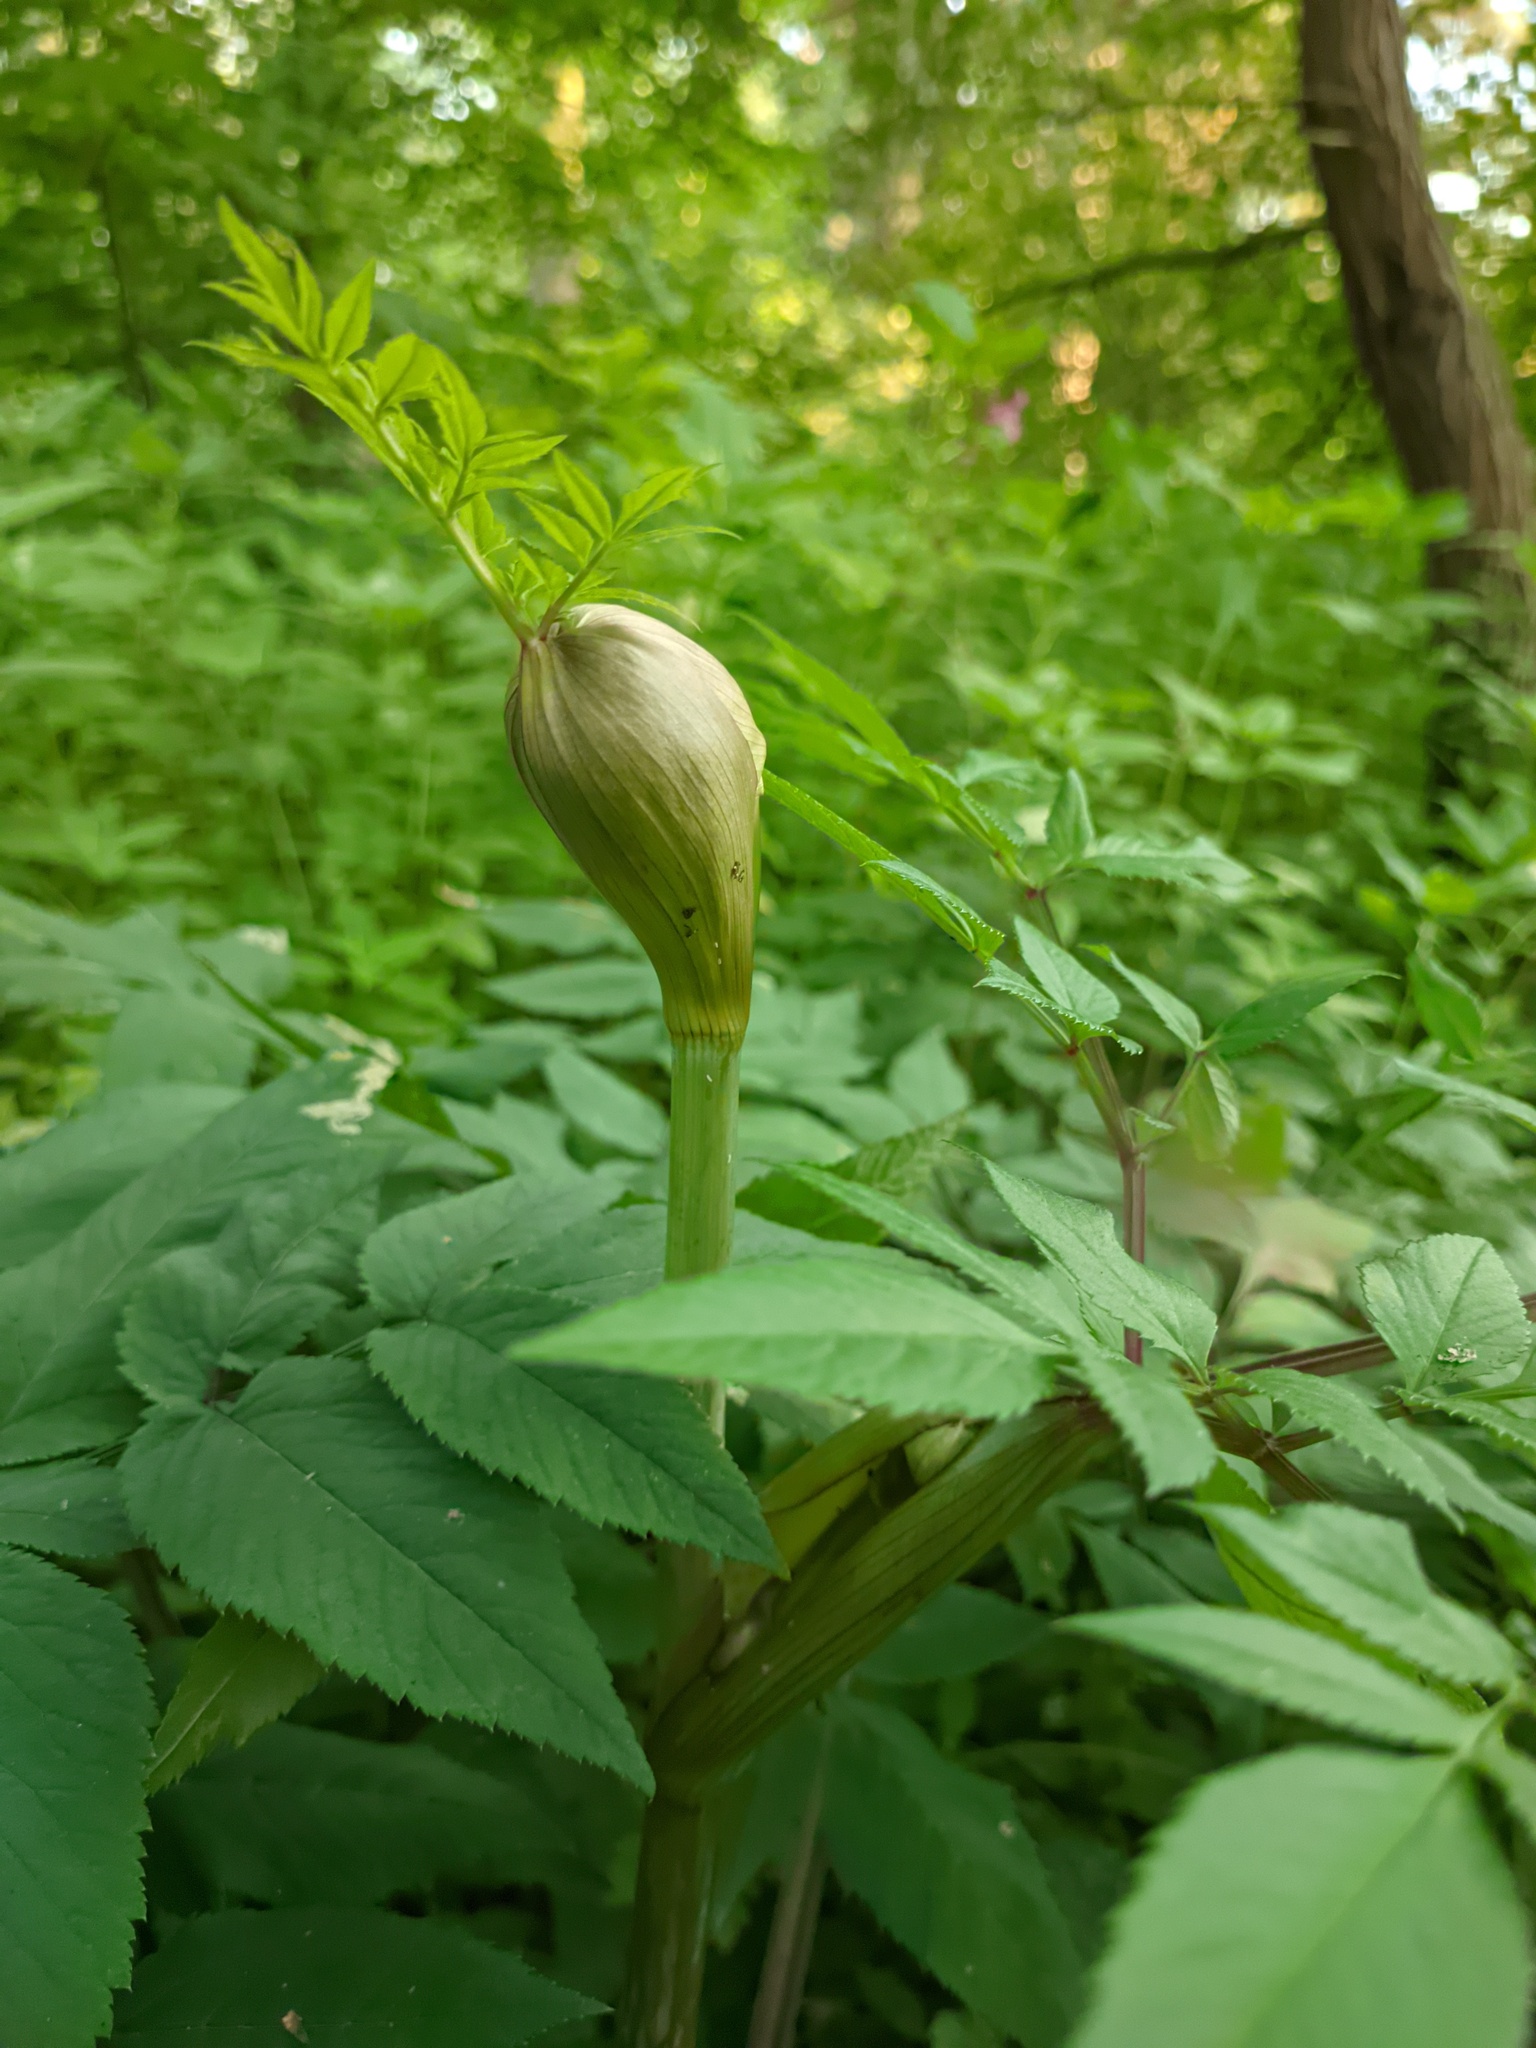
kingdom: Plantae
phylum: Tracheophyta
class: Magnoliopsida
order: Apiales
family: Apiaceae
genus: Angelica
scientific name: Angelica sylvestris
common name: Wild angelica
